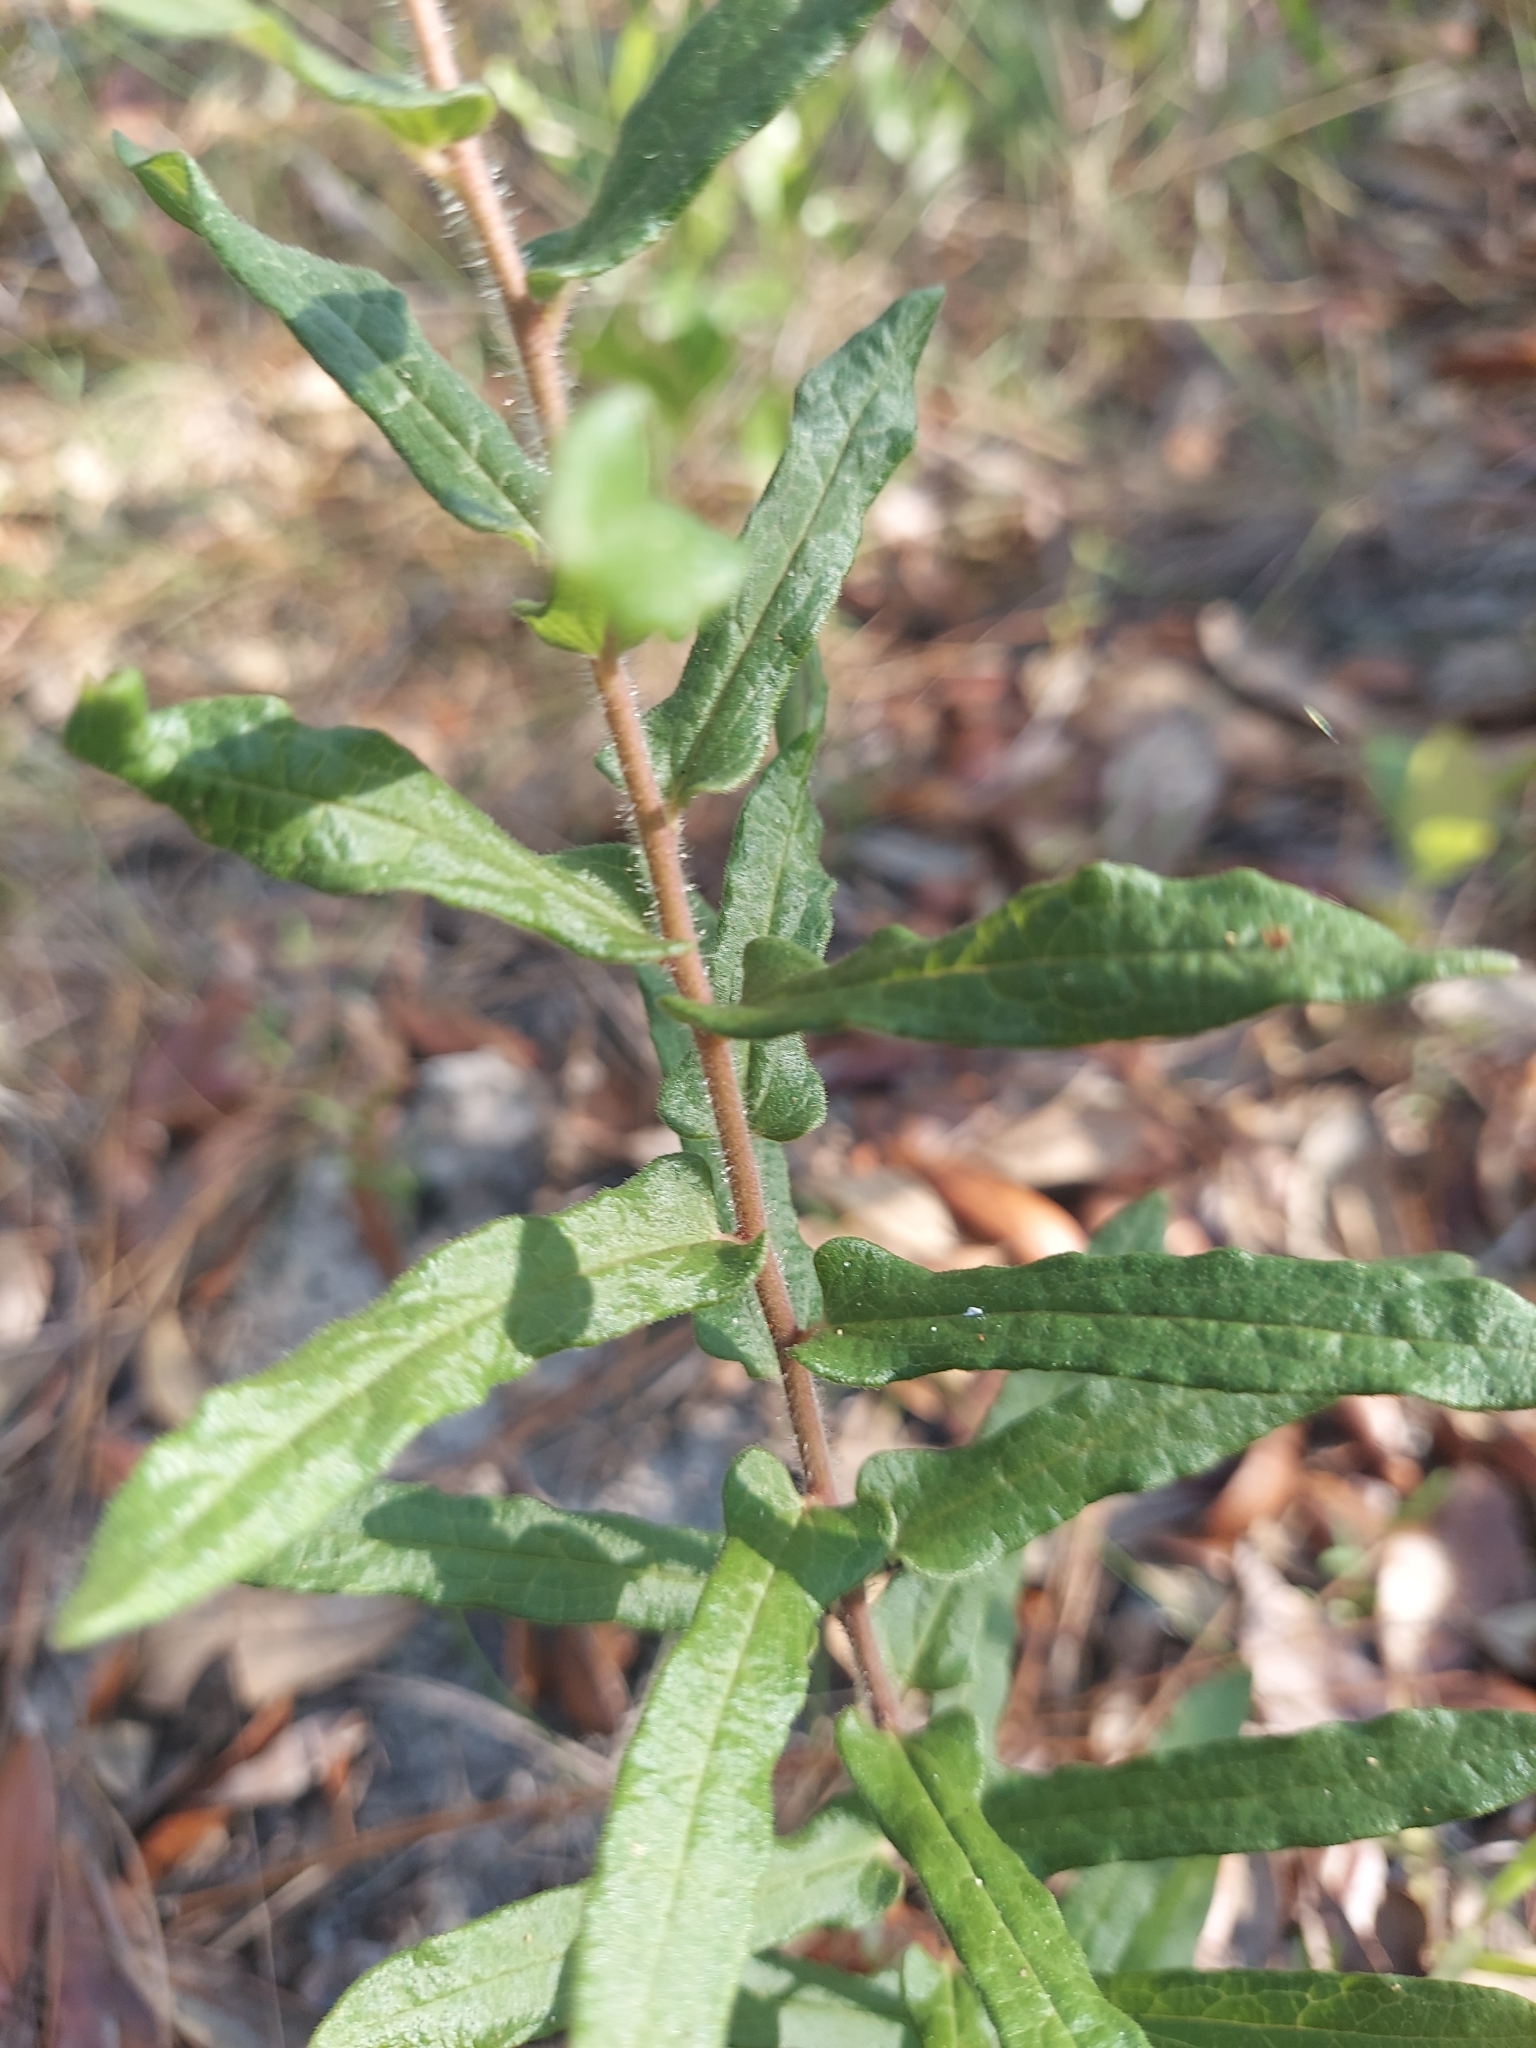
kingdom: Plantae
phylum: Tracheophyta
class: Magnoliopsida
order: Gentianales
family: Apocynaceae
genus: Asclepias
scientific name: Asclepias tuberosa
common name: Butterfly milkweed
